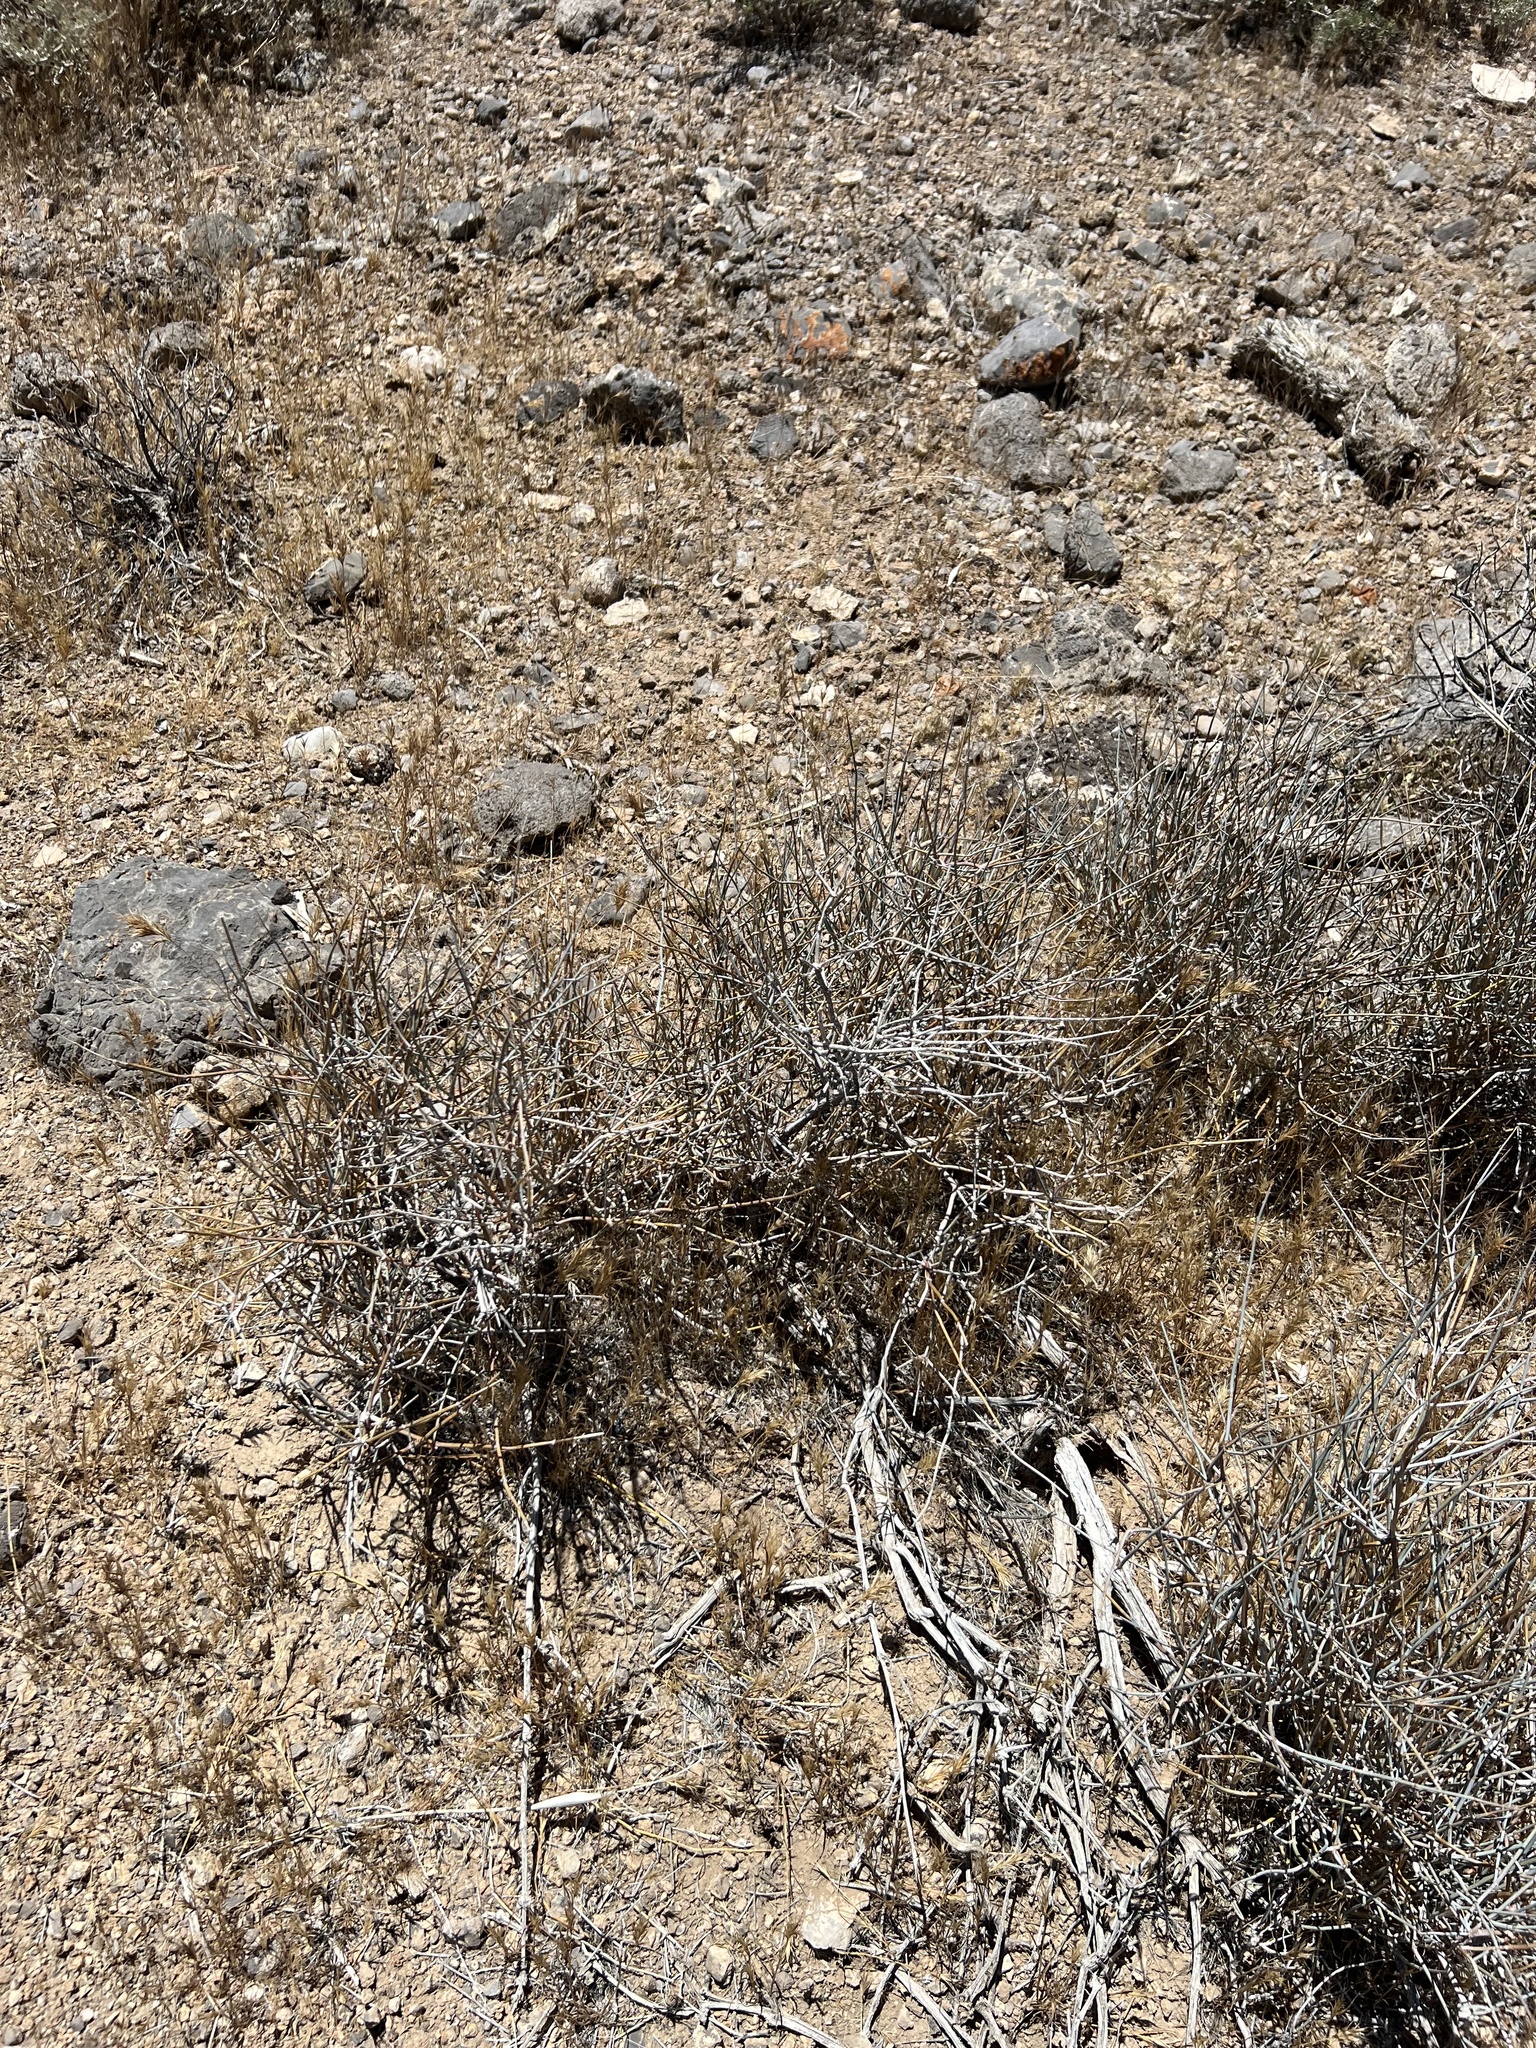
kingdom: Plantae
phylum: Tracheophyta
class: Gnetopsida
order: Ephedrales
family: Ephedraceae
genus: Ephedra
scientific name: Ephedra nevadensis
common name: Gray ephedra
